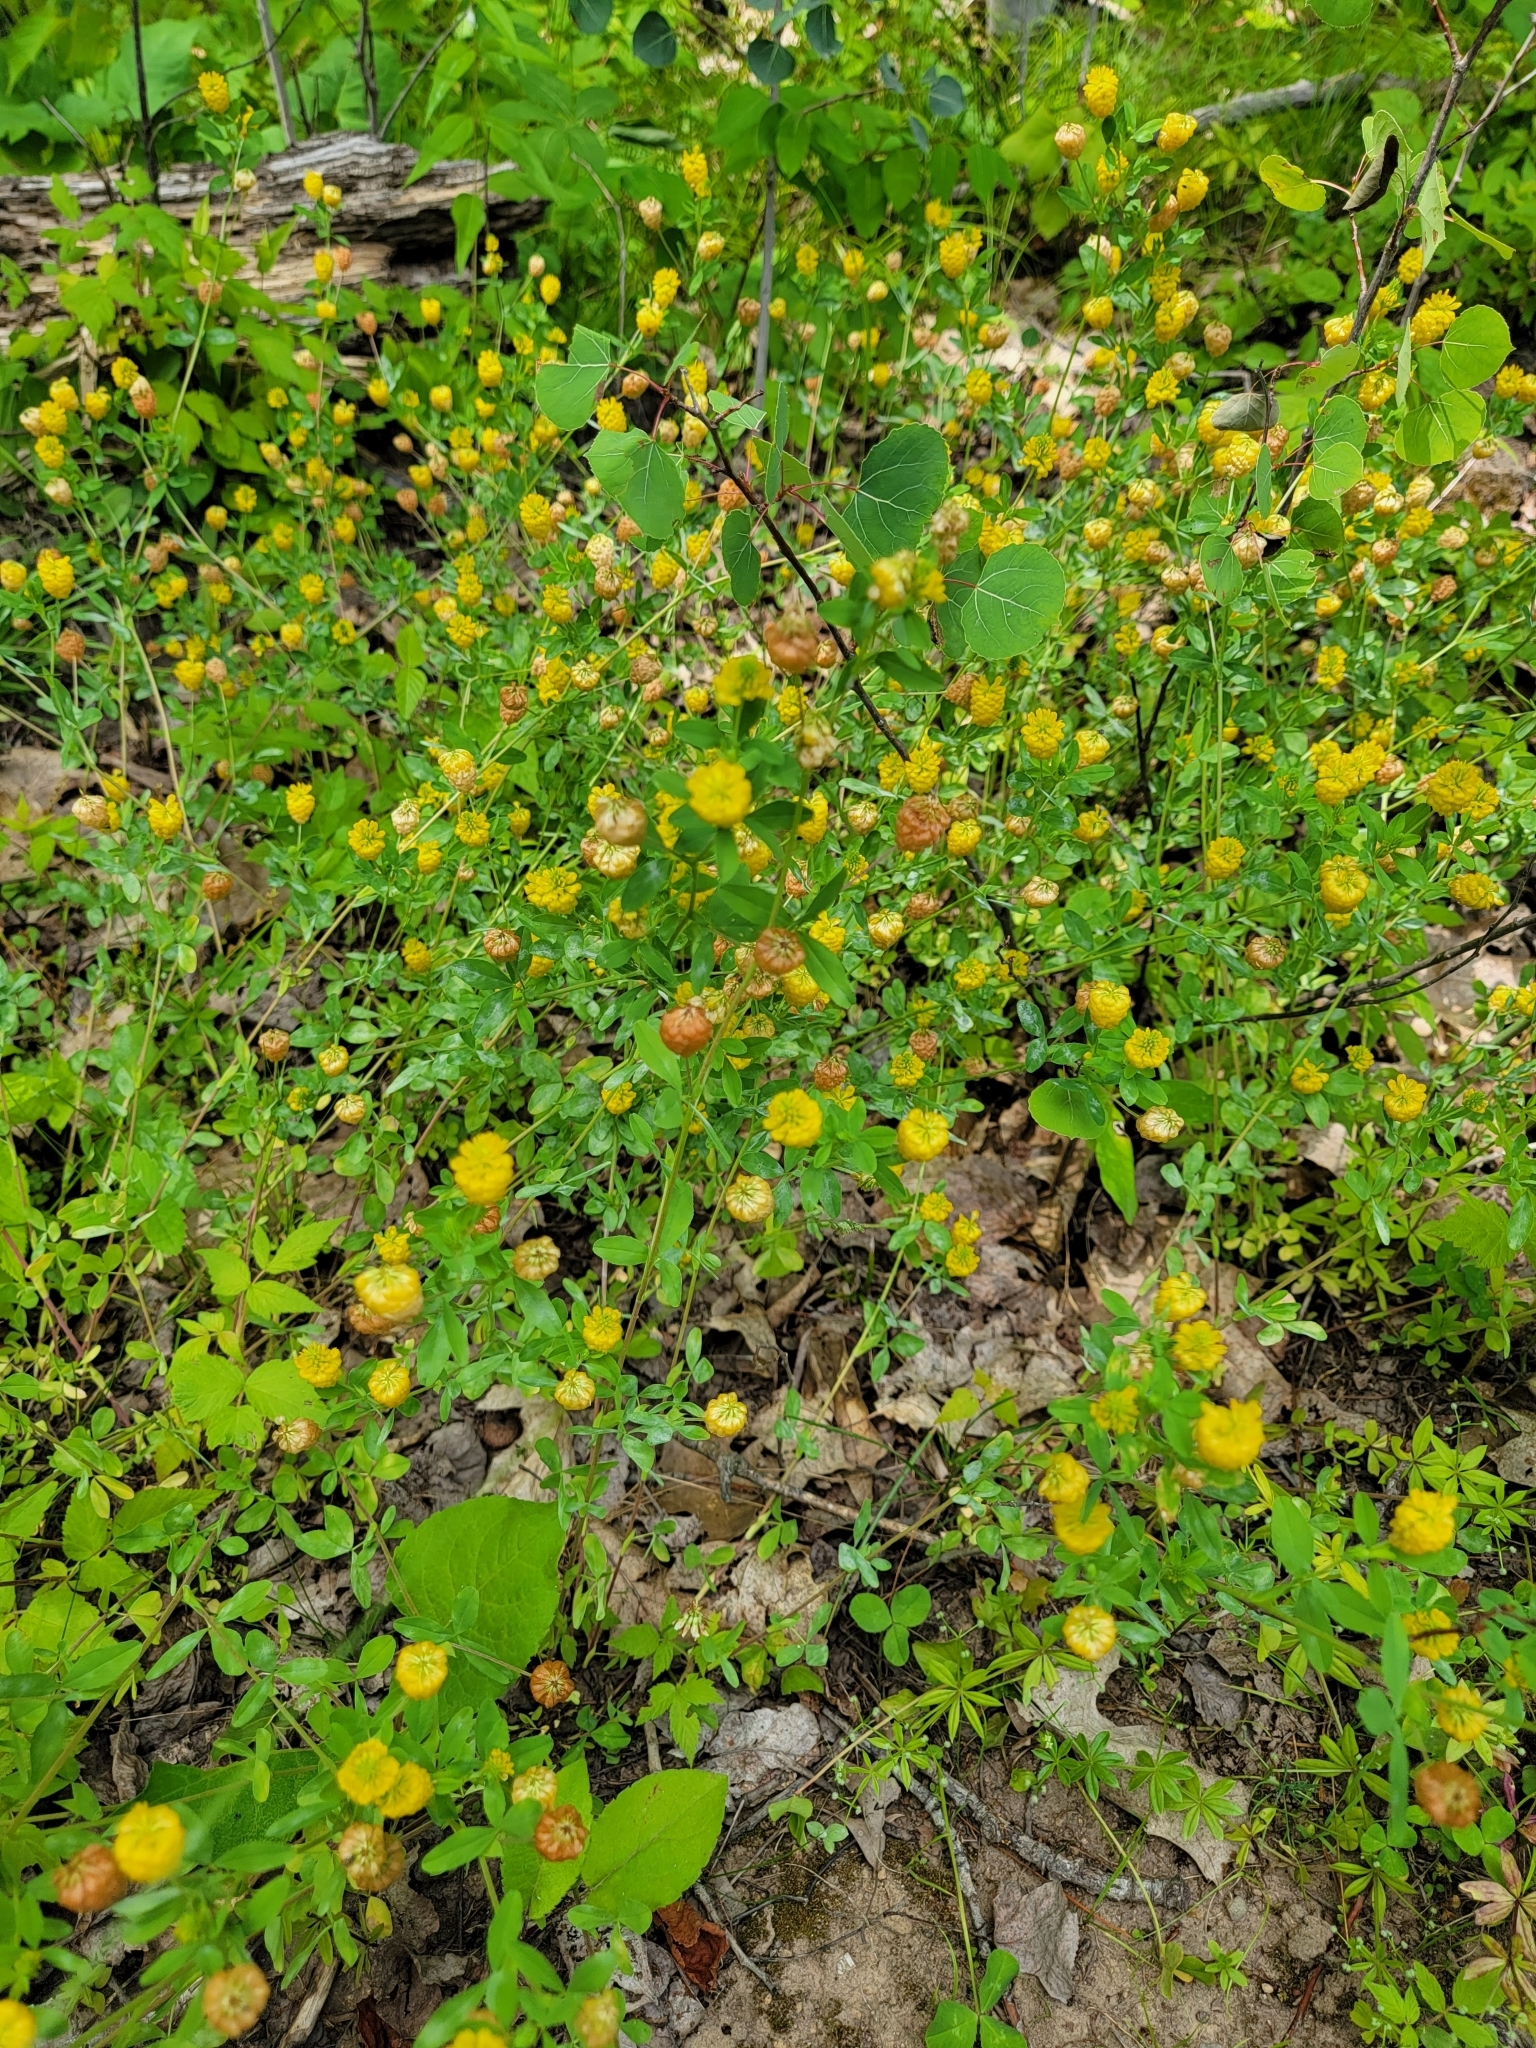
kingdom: Plantae
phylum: Tracheophyta
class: Magnoliopsida
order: Fabales
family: Fabaceae
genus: Trifolium
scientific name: Trifolium aureum
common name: Golden clover
